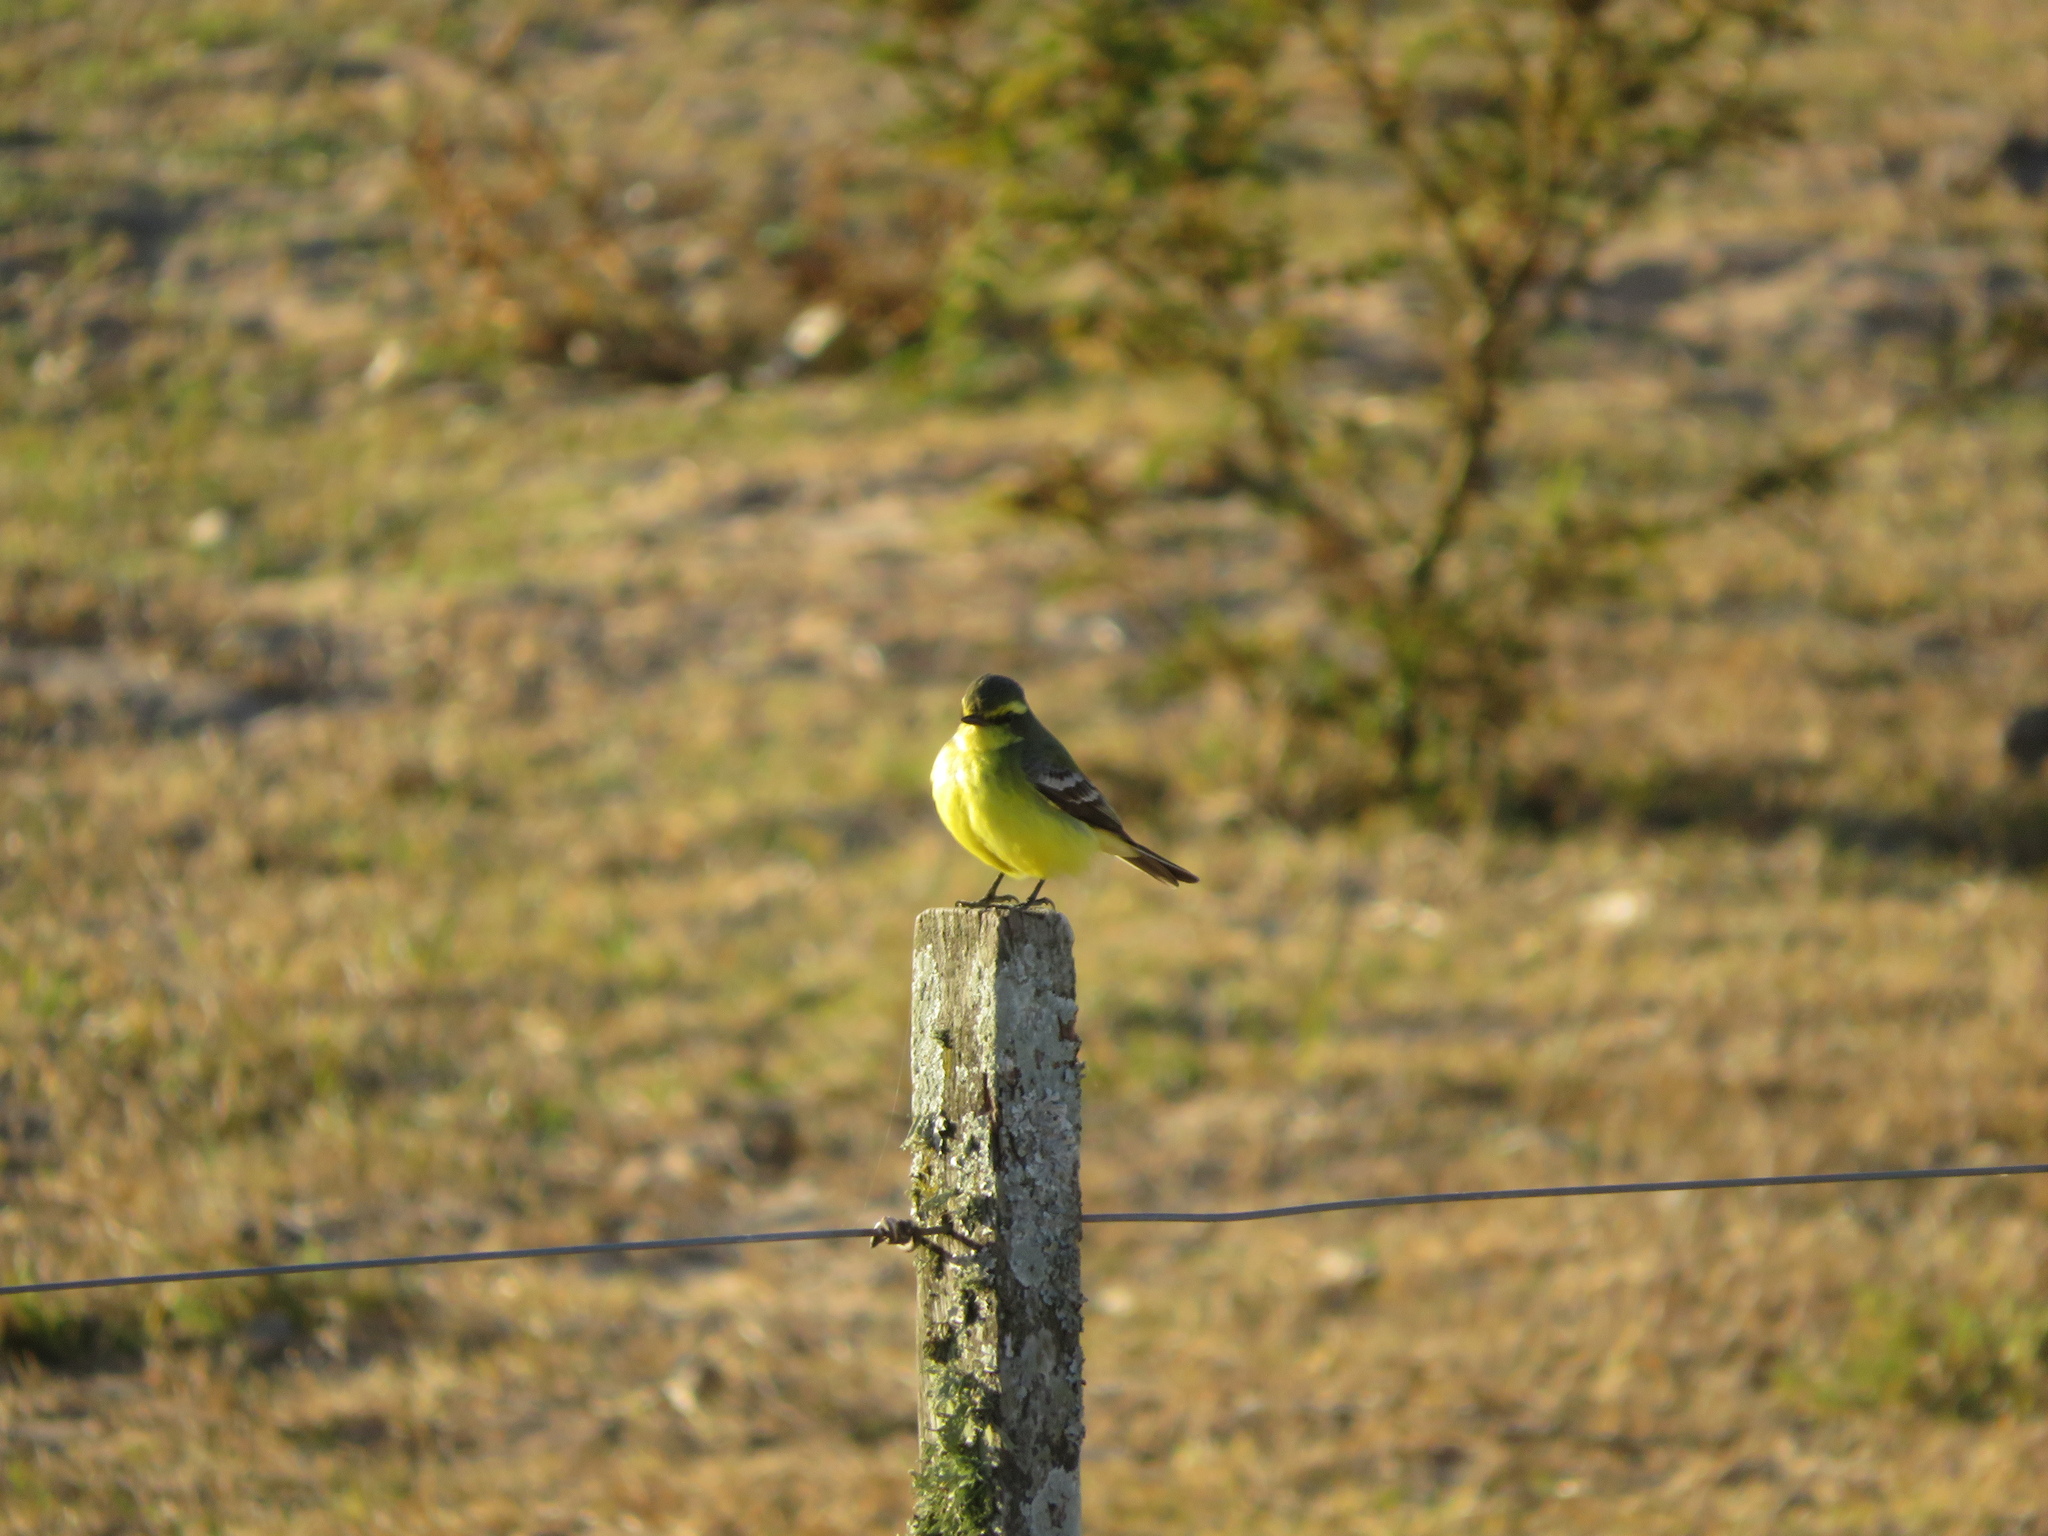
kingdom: Animalia
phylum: Chordata
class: Aves
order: Passeriformes
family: Tyrannidae
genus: Satrapa
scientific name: Satrapa icterophrys
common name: Yellow-browed tyrant
